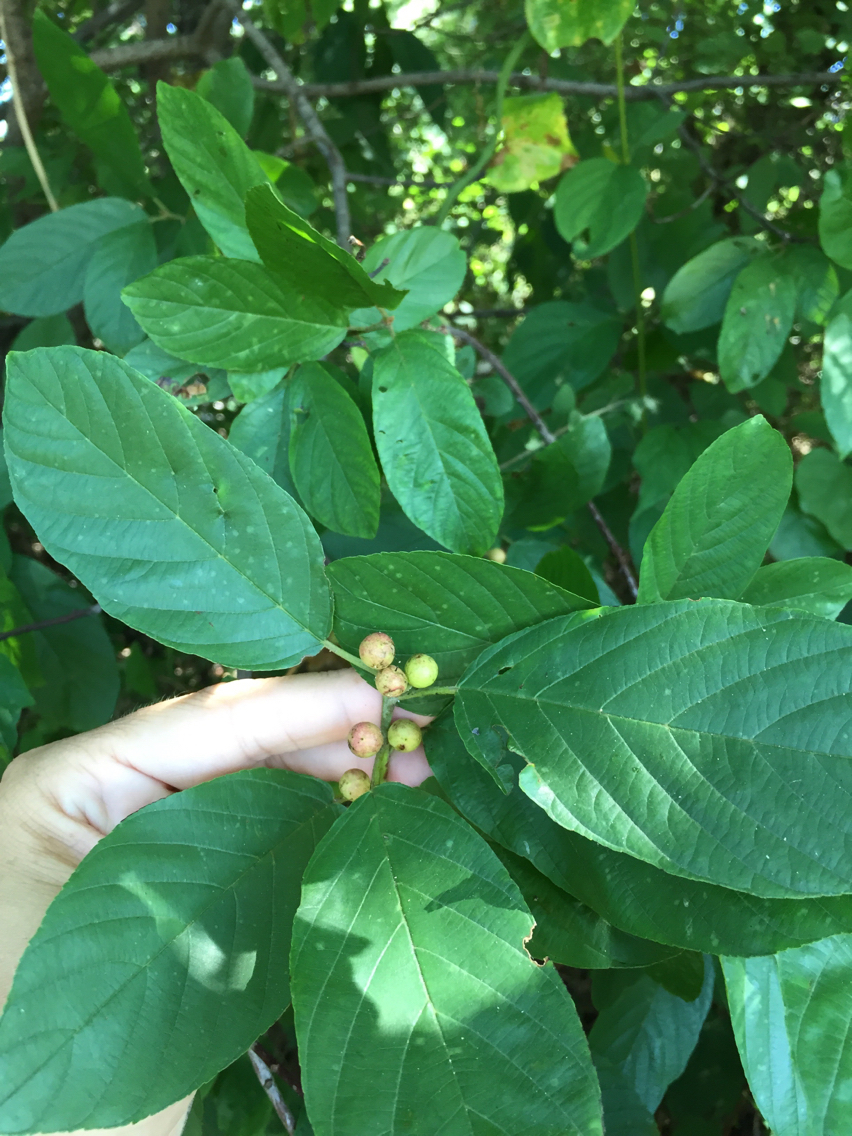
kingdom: Plantae
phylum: Tracheophyta
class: Magnoliopsida
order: Rosales
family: Rhamnaceae
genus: Frangula
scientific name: Frangula caroliniana
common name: Carolina buckthorn
